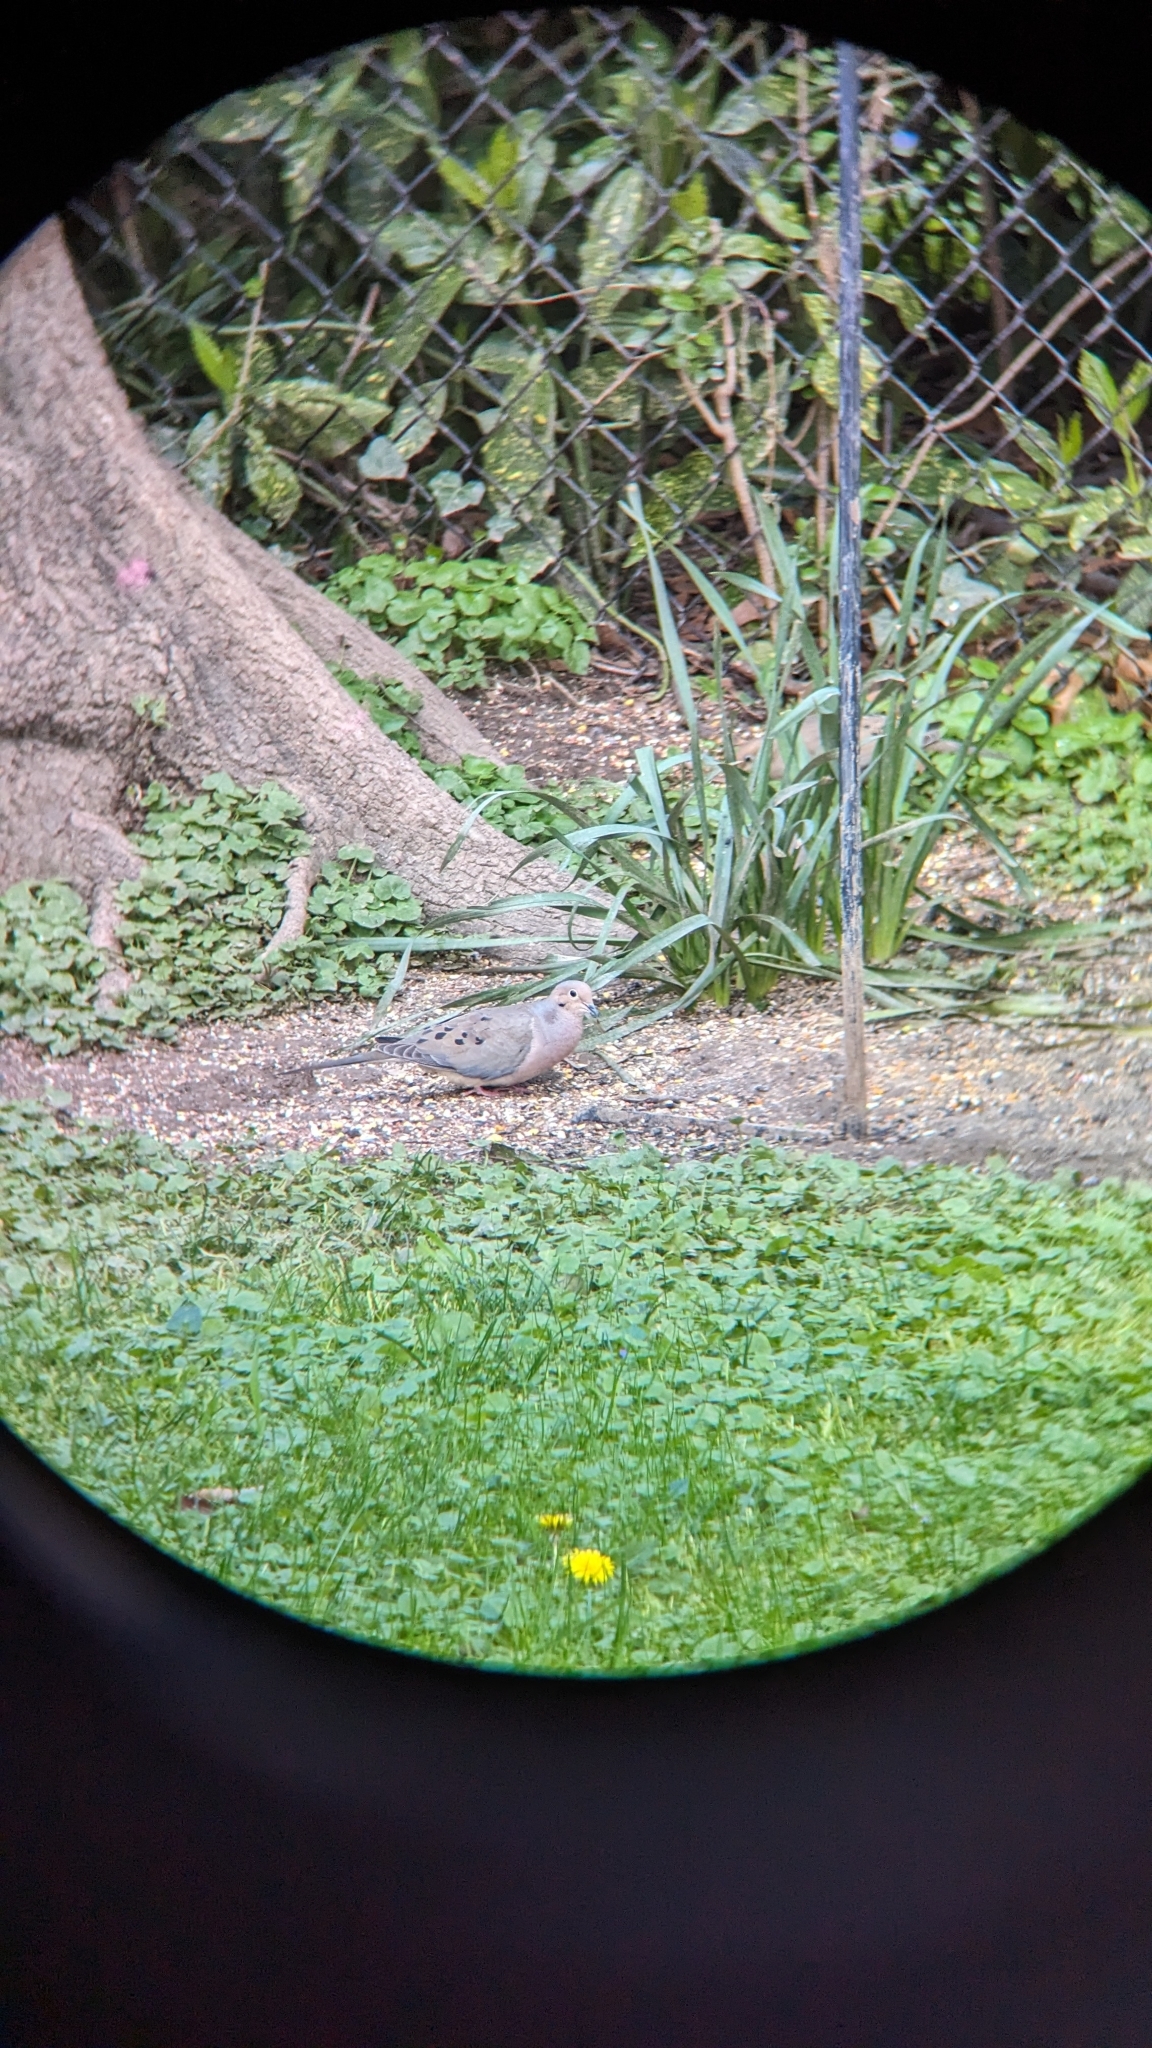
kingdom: Animalia
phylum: Chordata
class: Aves
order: Columbiformes
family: Columbidae
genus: Zenaida
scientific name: Zenaida macroura
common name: Mourning dove
